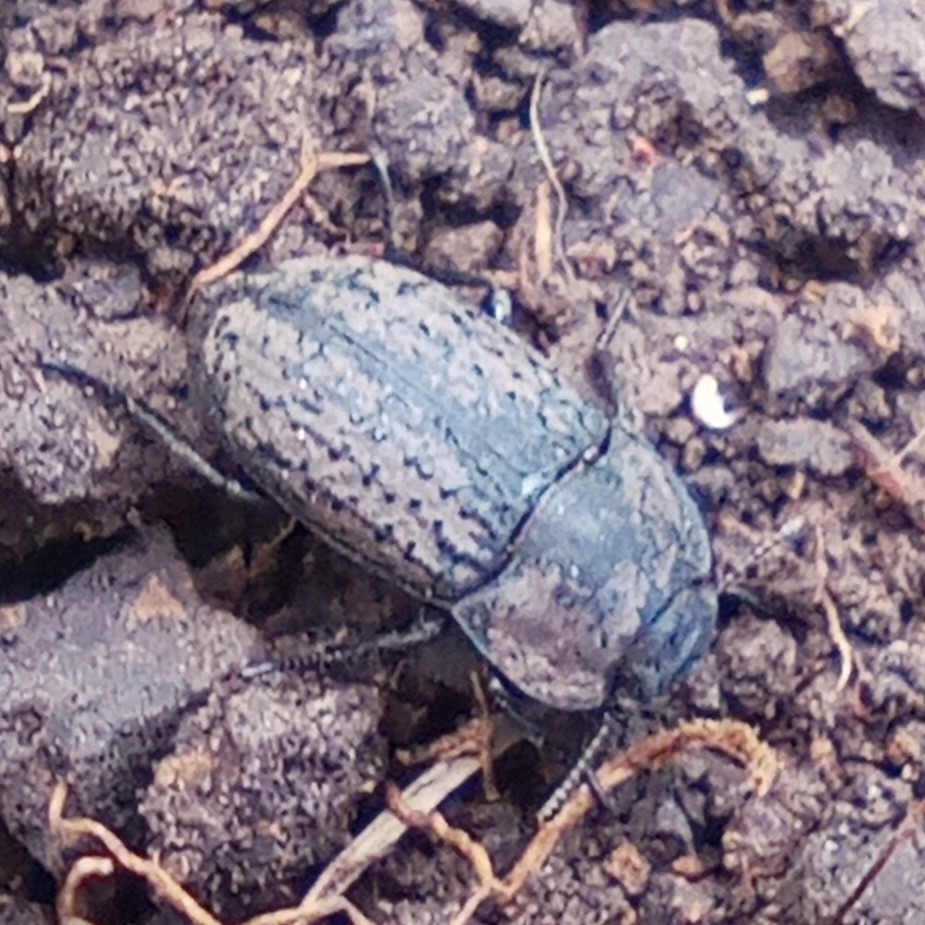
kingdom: Animalia
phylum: Arthropoda
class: Insecta
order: Coleoptera
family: Tenebrionidae
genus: Opatrum
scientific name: Opatrum sabulosum
